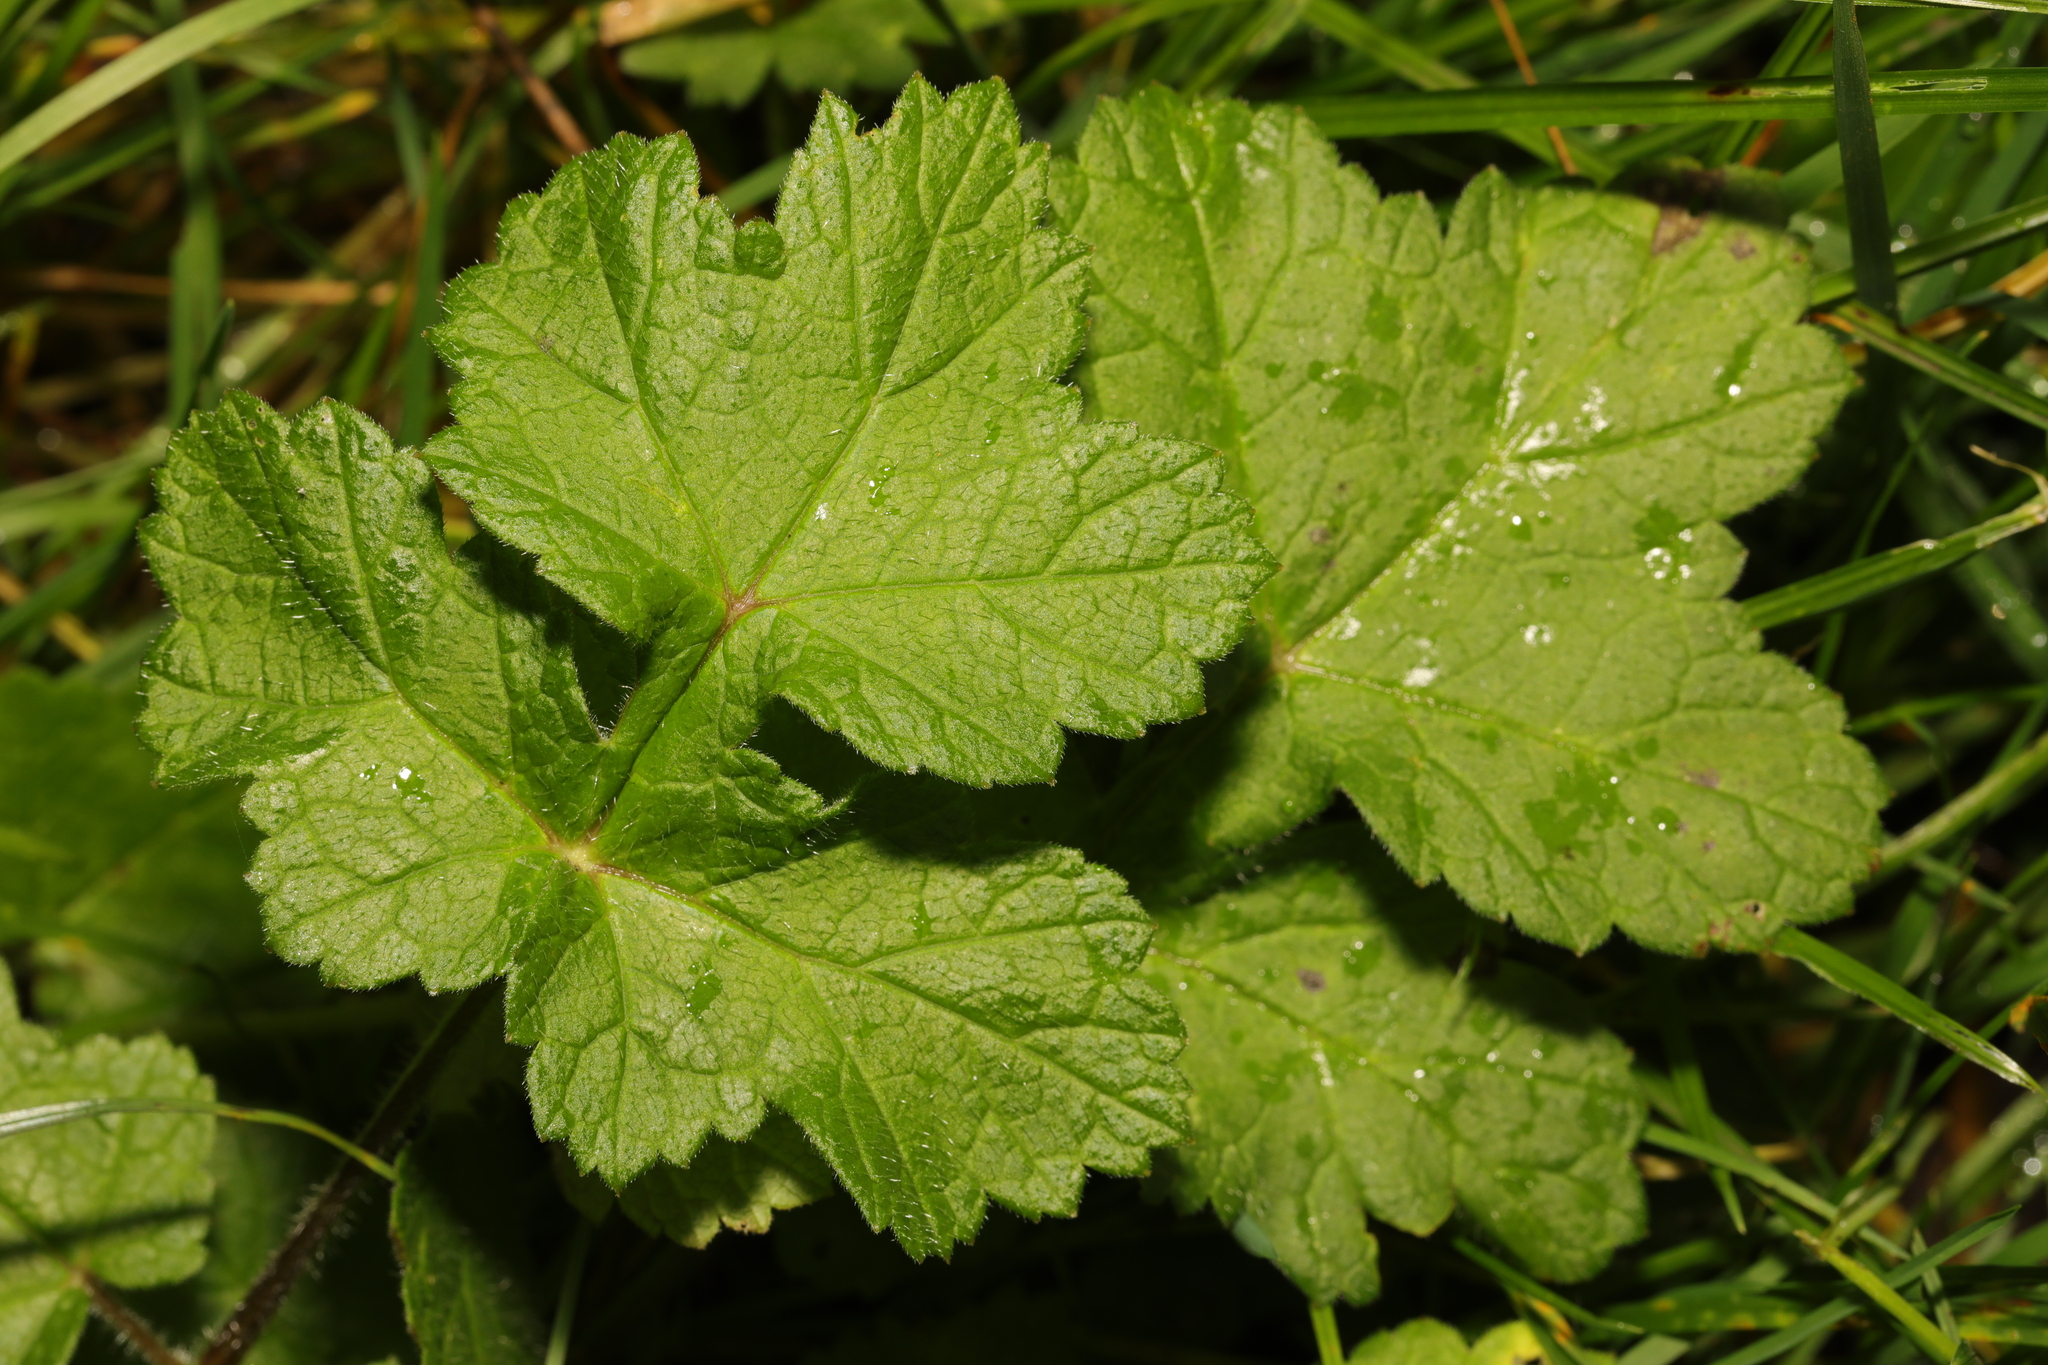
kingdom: Plantae
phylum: Tracheophyta
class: Magnoliopsida
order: Apiales
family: Apiaceae
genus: Heracleum
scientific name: Heracleum sphondylium
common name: Hogweed
